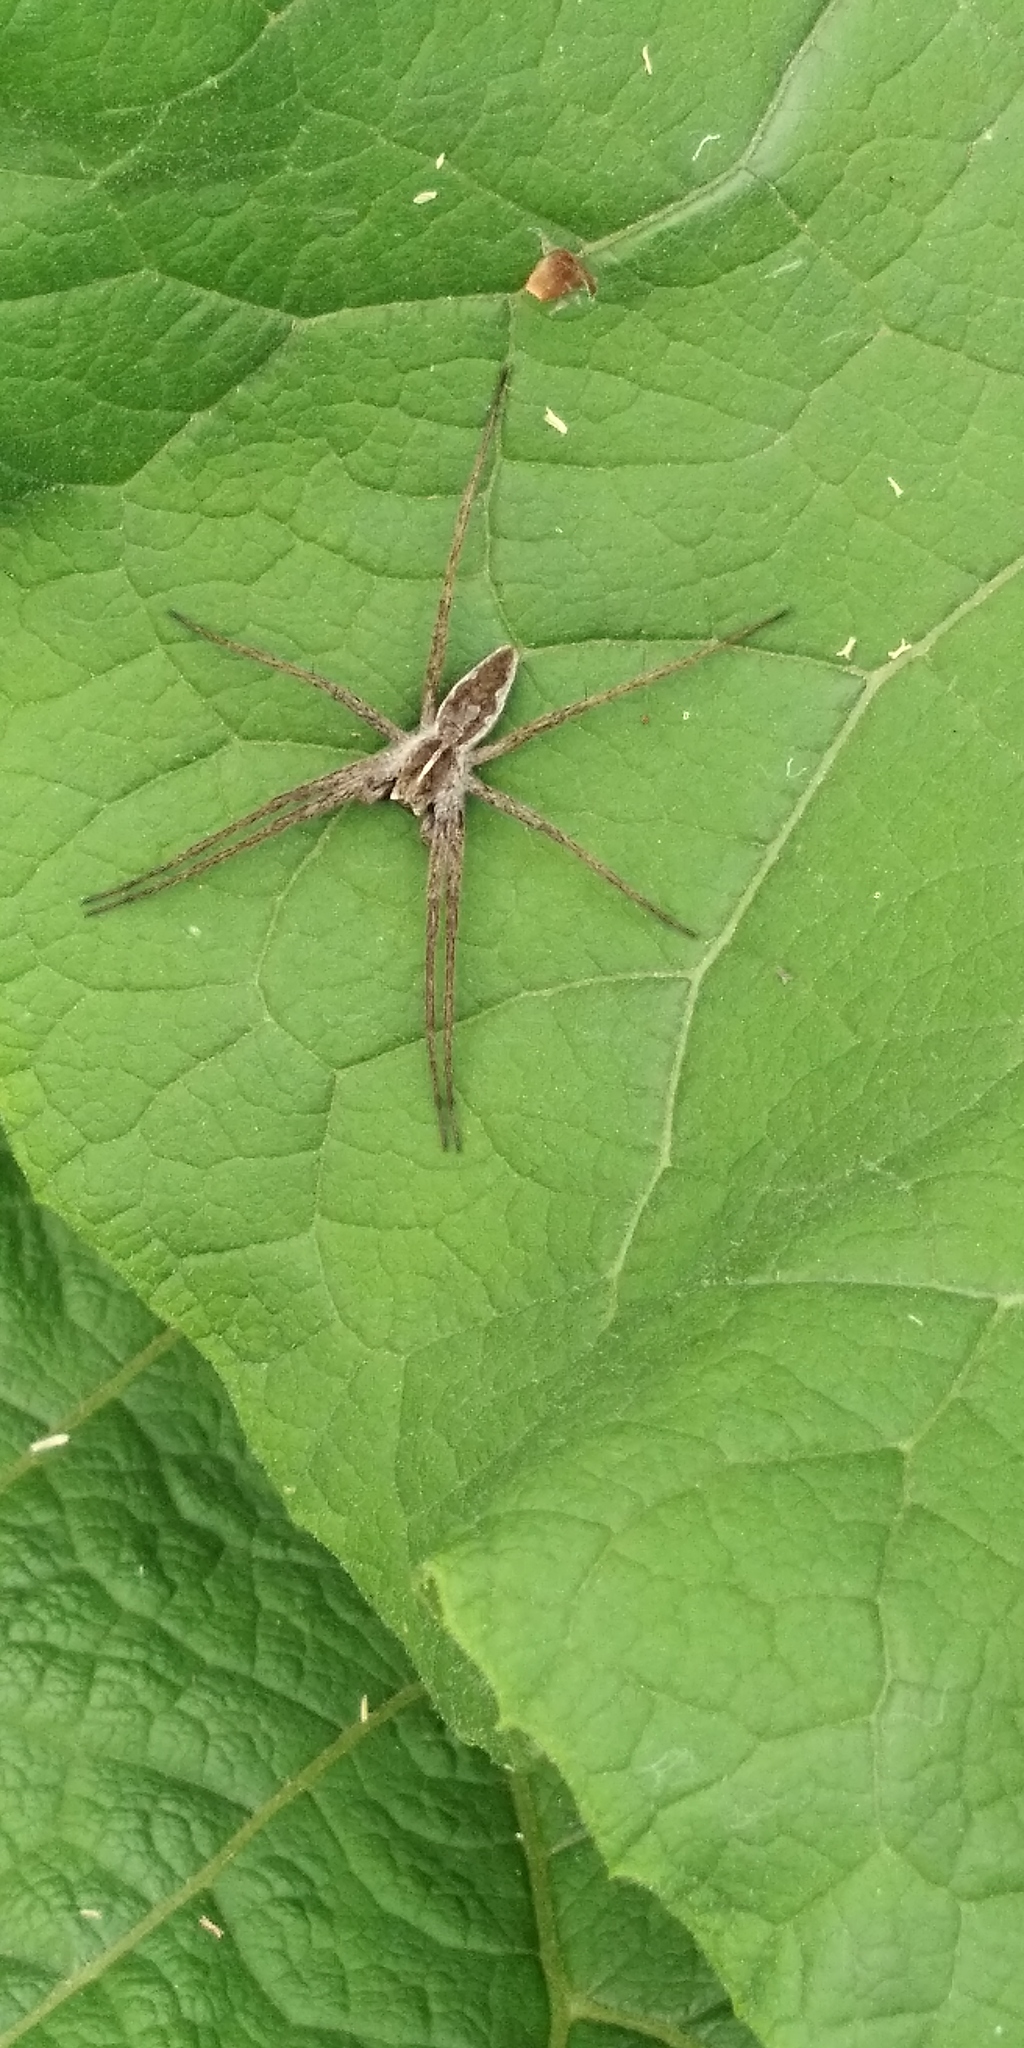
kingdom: Animalia
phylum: Arthropoda
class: Arachnida
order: Araneae
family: Pisauridae
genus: Pisaura
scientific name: Pisaura
